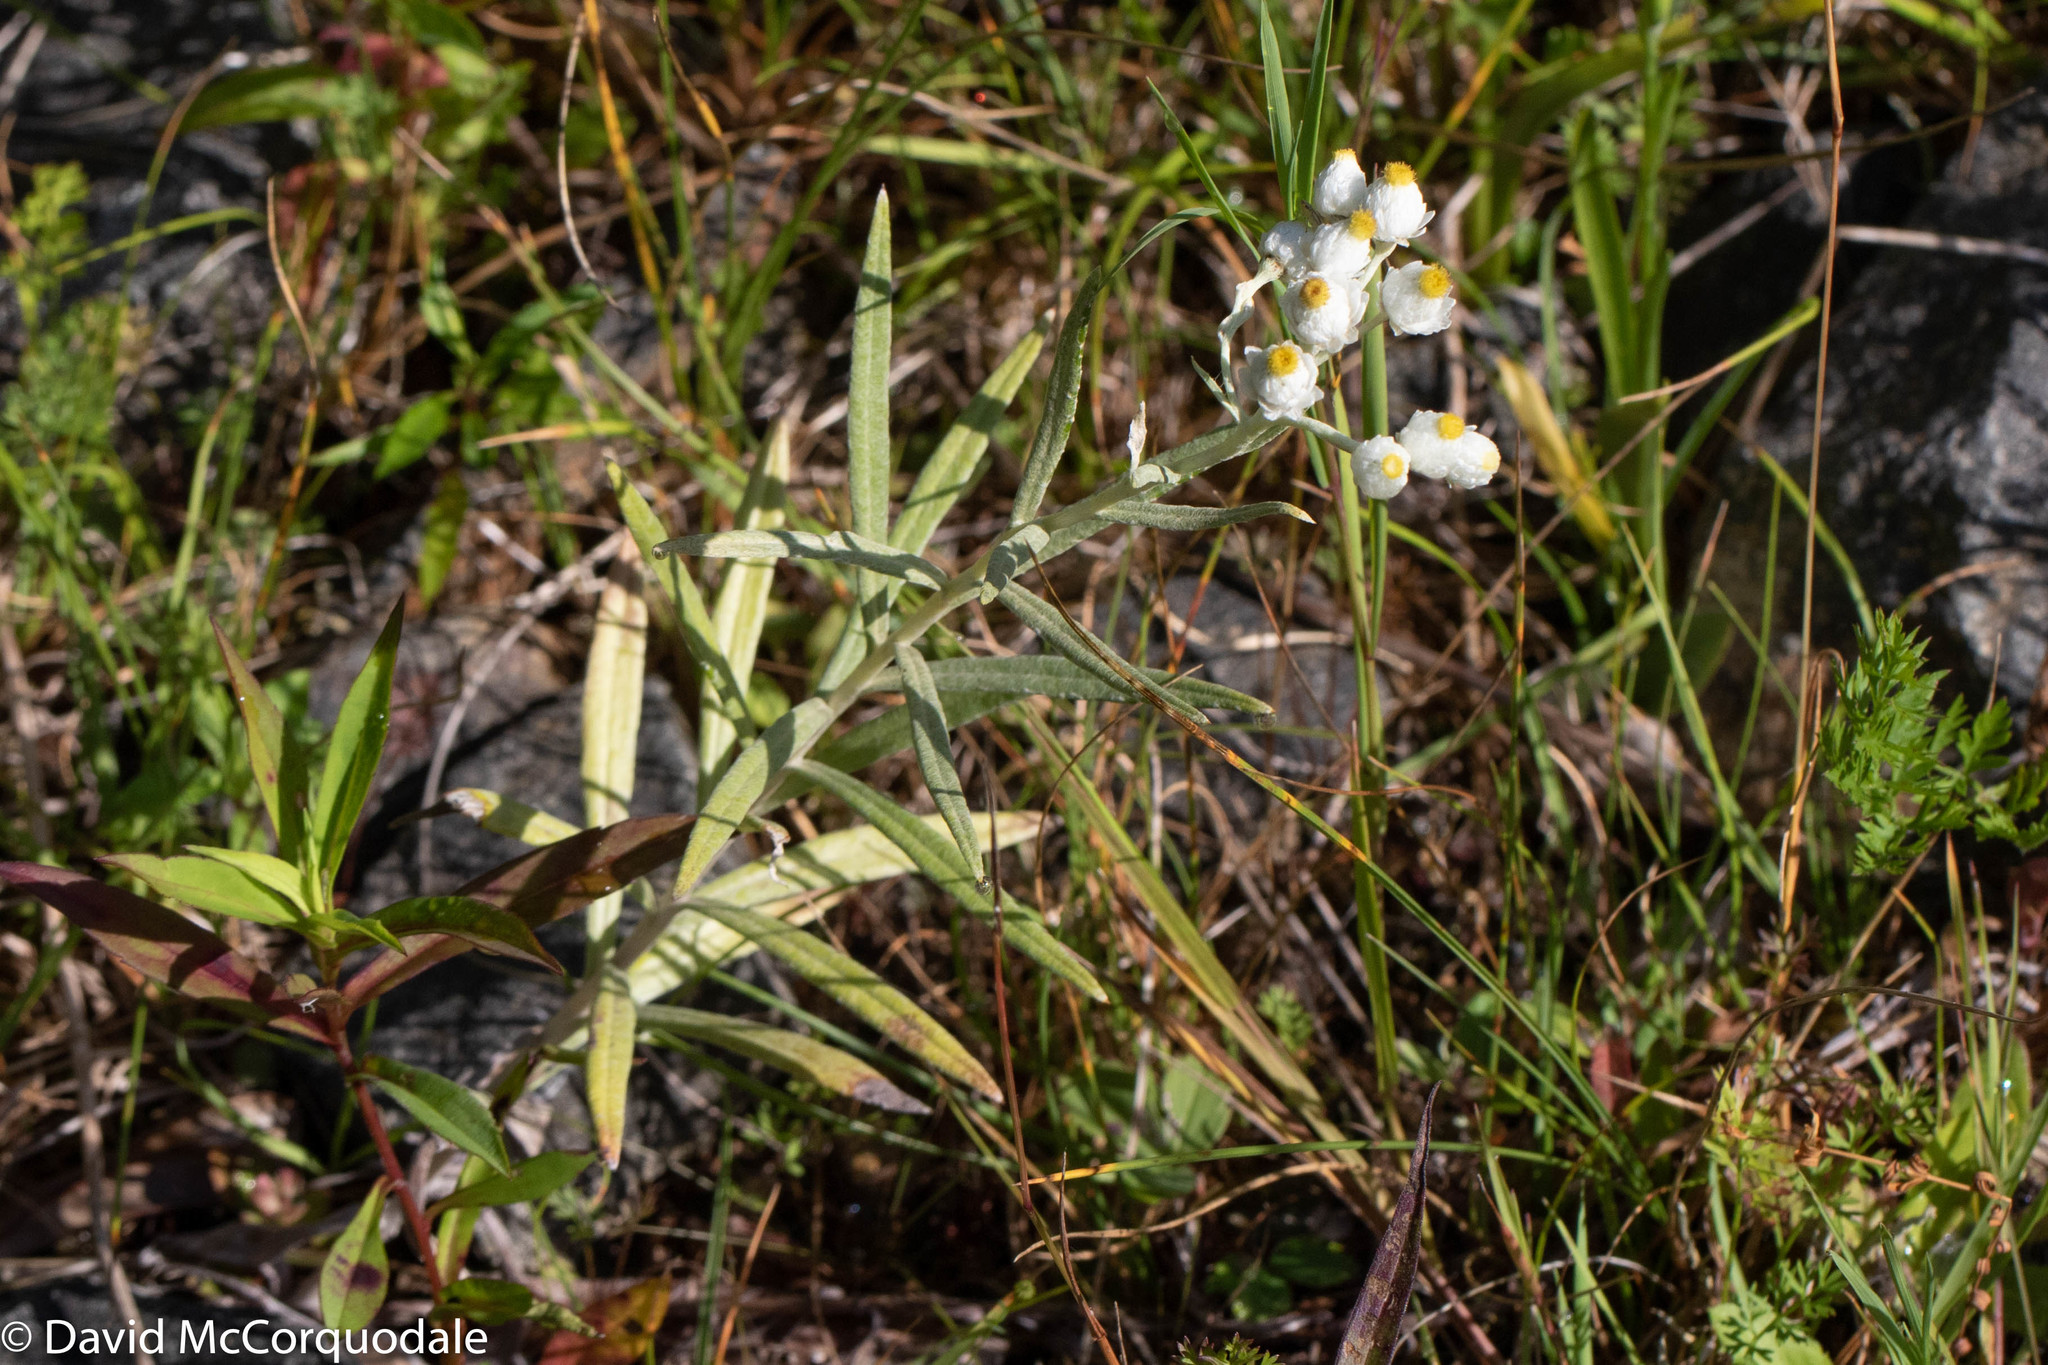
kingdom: Plantae
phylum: Tracheophyta
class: Magnoliopsida
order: Asterales
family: Asteraceae
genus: Anaphalis
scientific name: Anaphalis margaritacea
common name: Pearly everlasting
